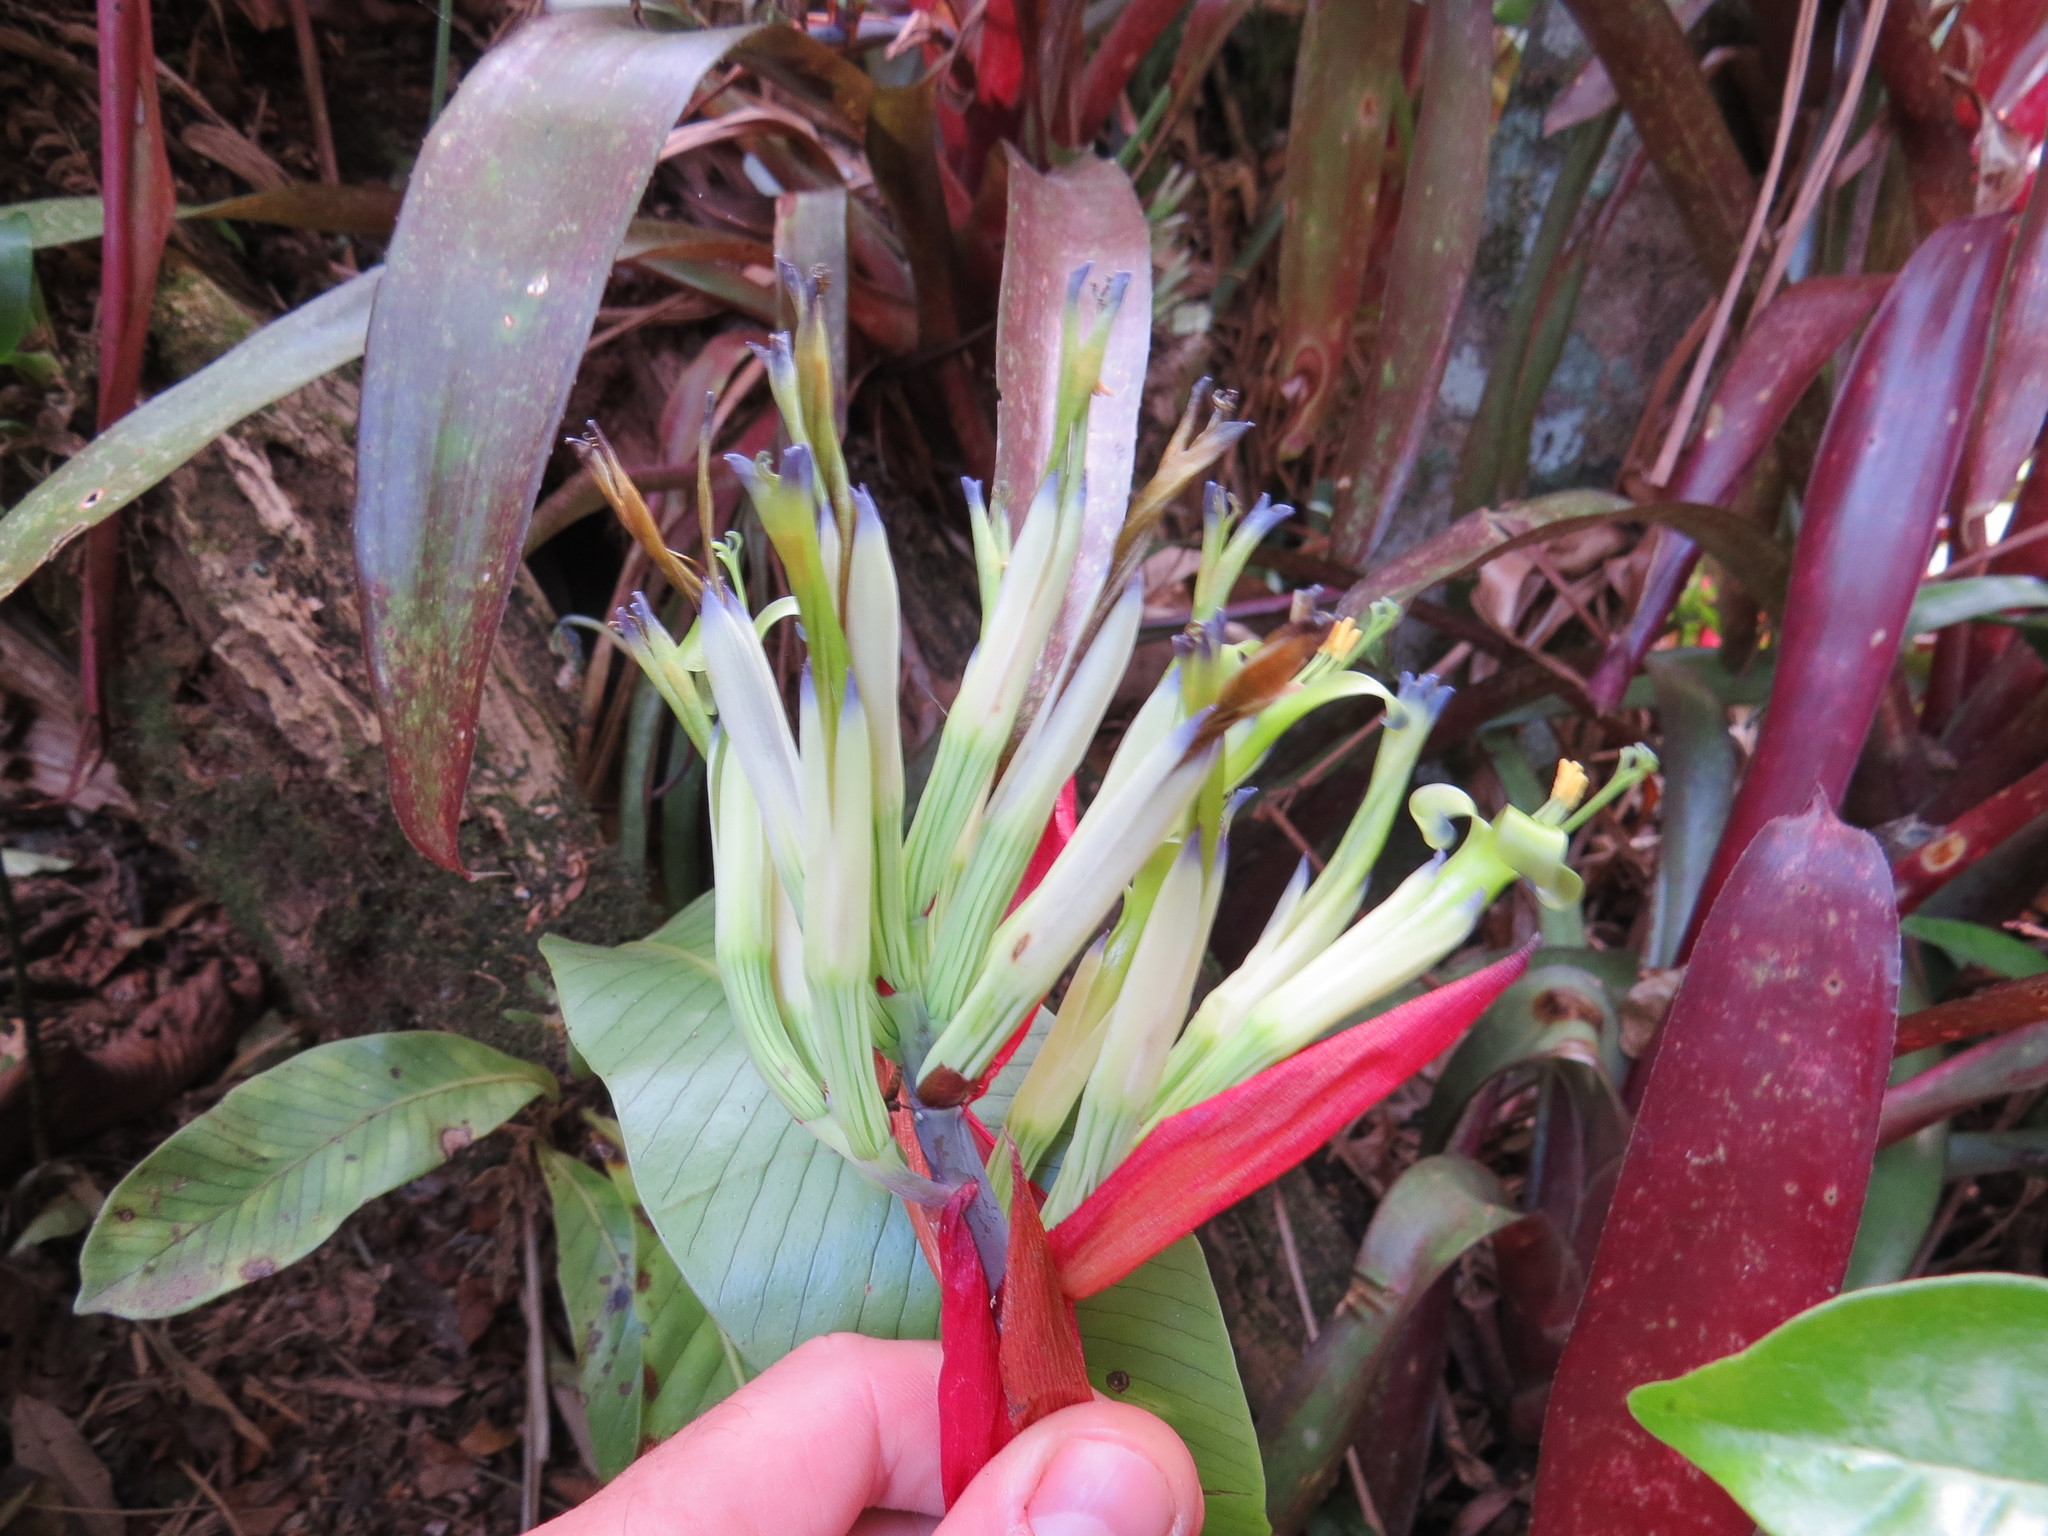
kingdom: Plantae
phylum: Tracheophyta
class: Liliopsida
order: Poales
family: Bromeliaceae
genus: Billbergia
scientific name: Billbergia amoena
